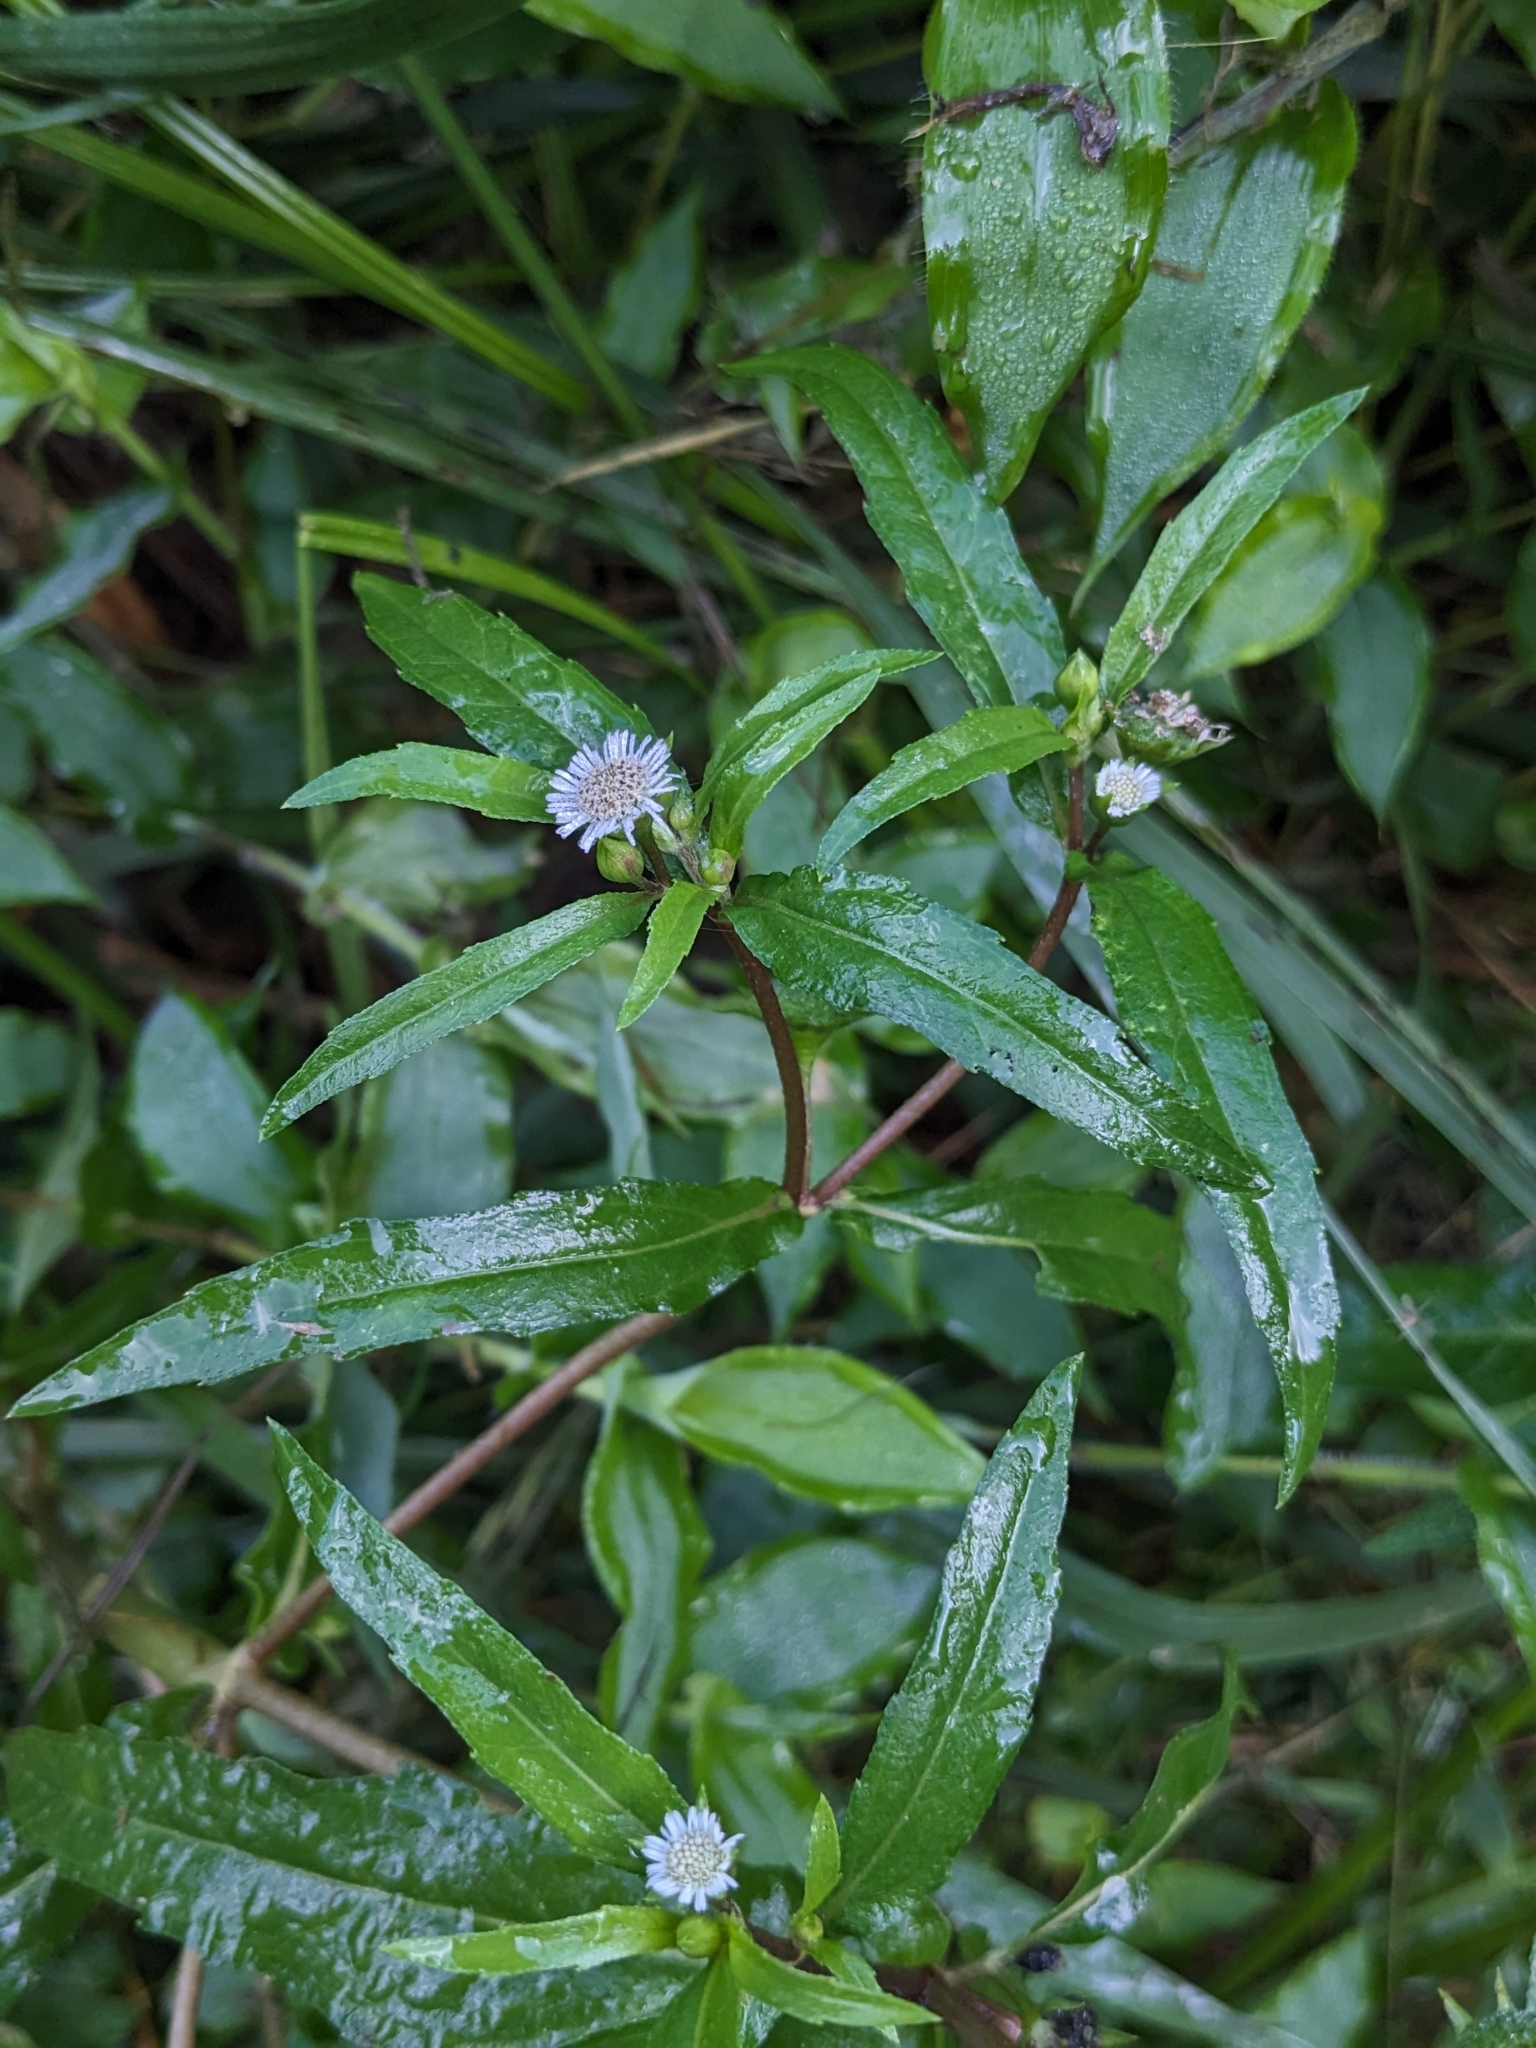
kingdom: Plantae
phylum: Tracheophyta
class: Magnoliopsida
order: Asterales
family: Asteraceae
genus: Eclipta
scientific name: Eclipta prostrata
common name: False daisy
